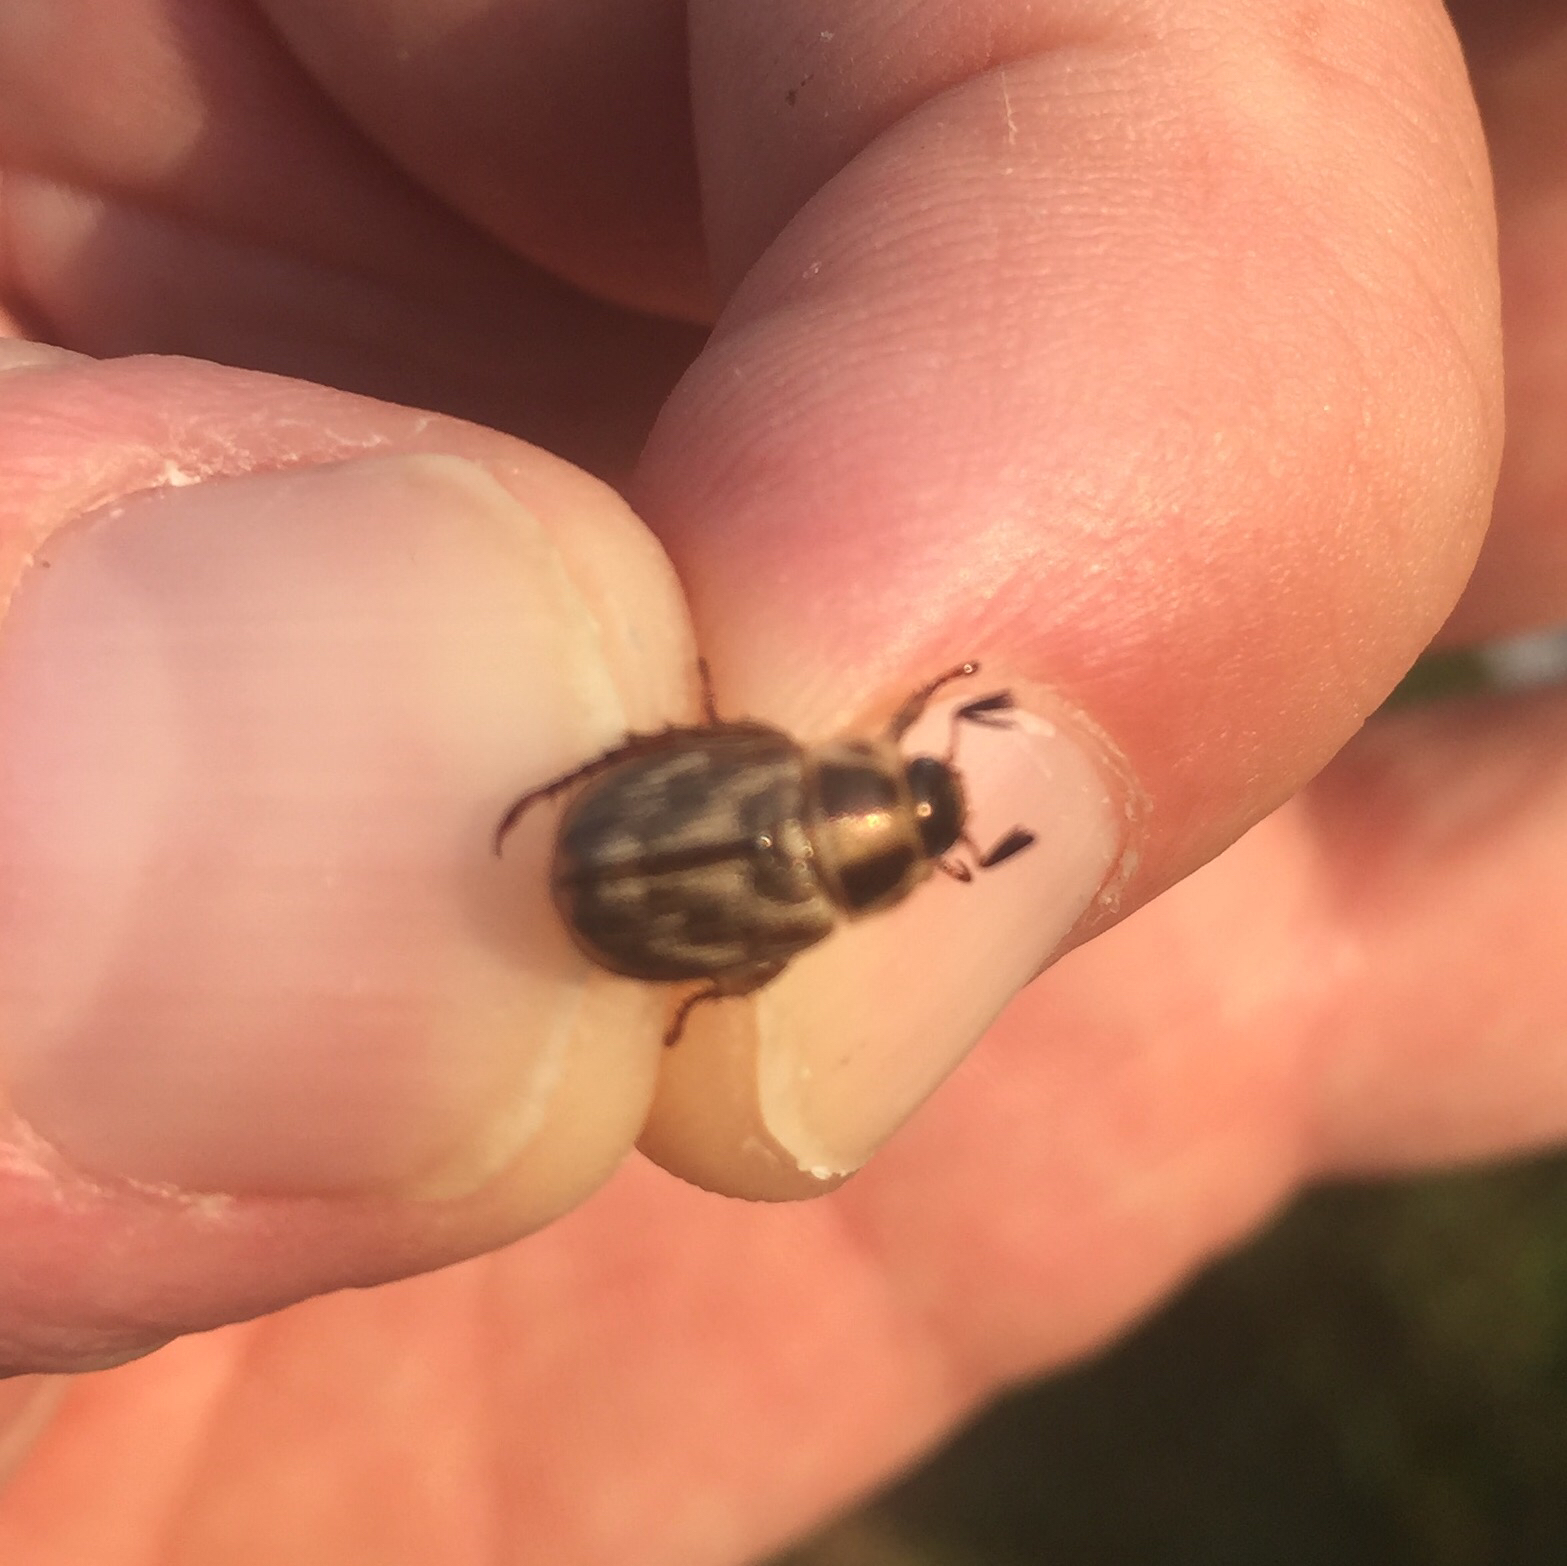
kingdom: Animalia
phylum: Arthropoda
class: Insecta
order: Coleoptera
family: Scarabaeidae
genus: Exomala
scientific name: Exomala orientalis
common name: Oriental beetle
